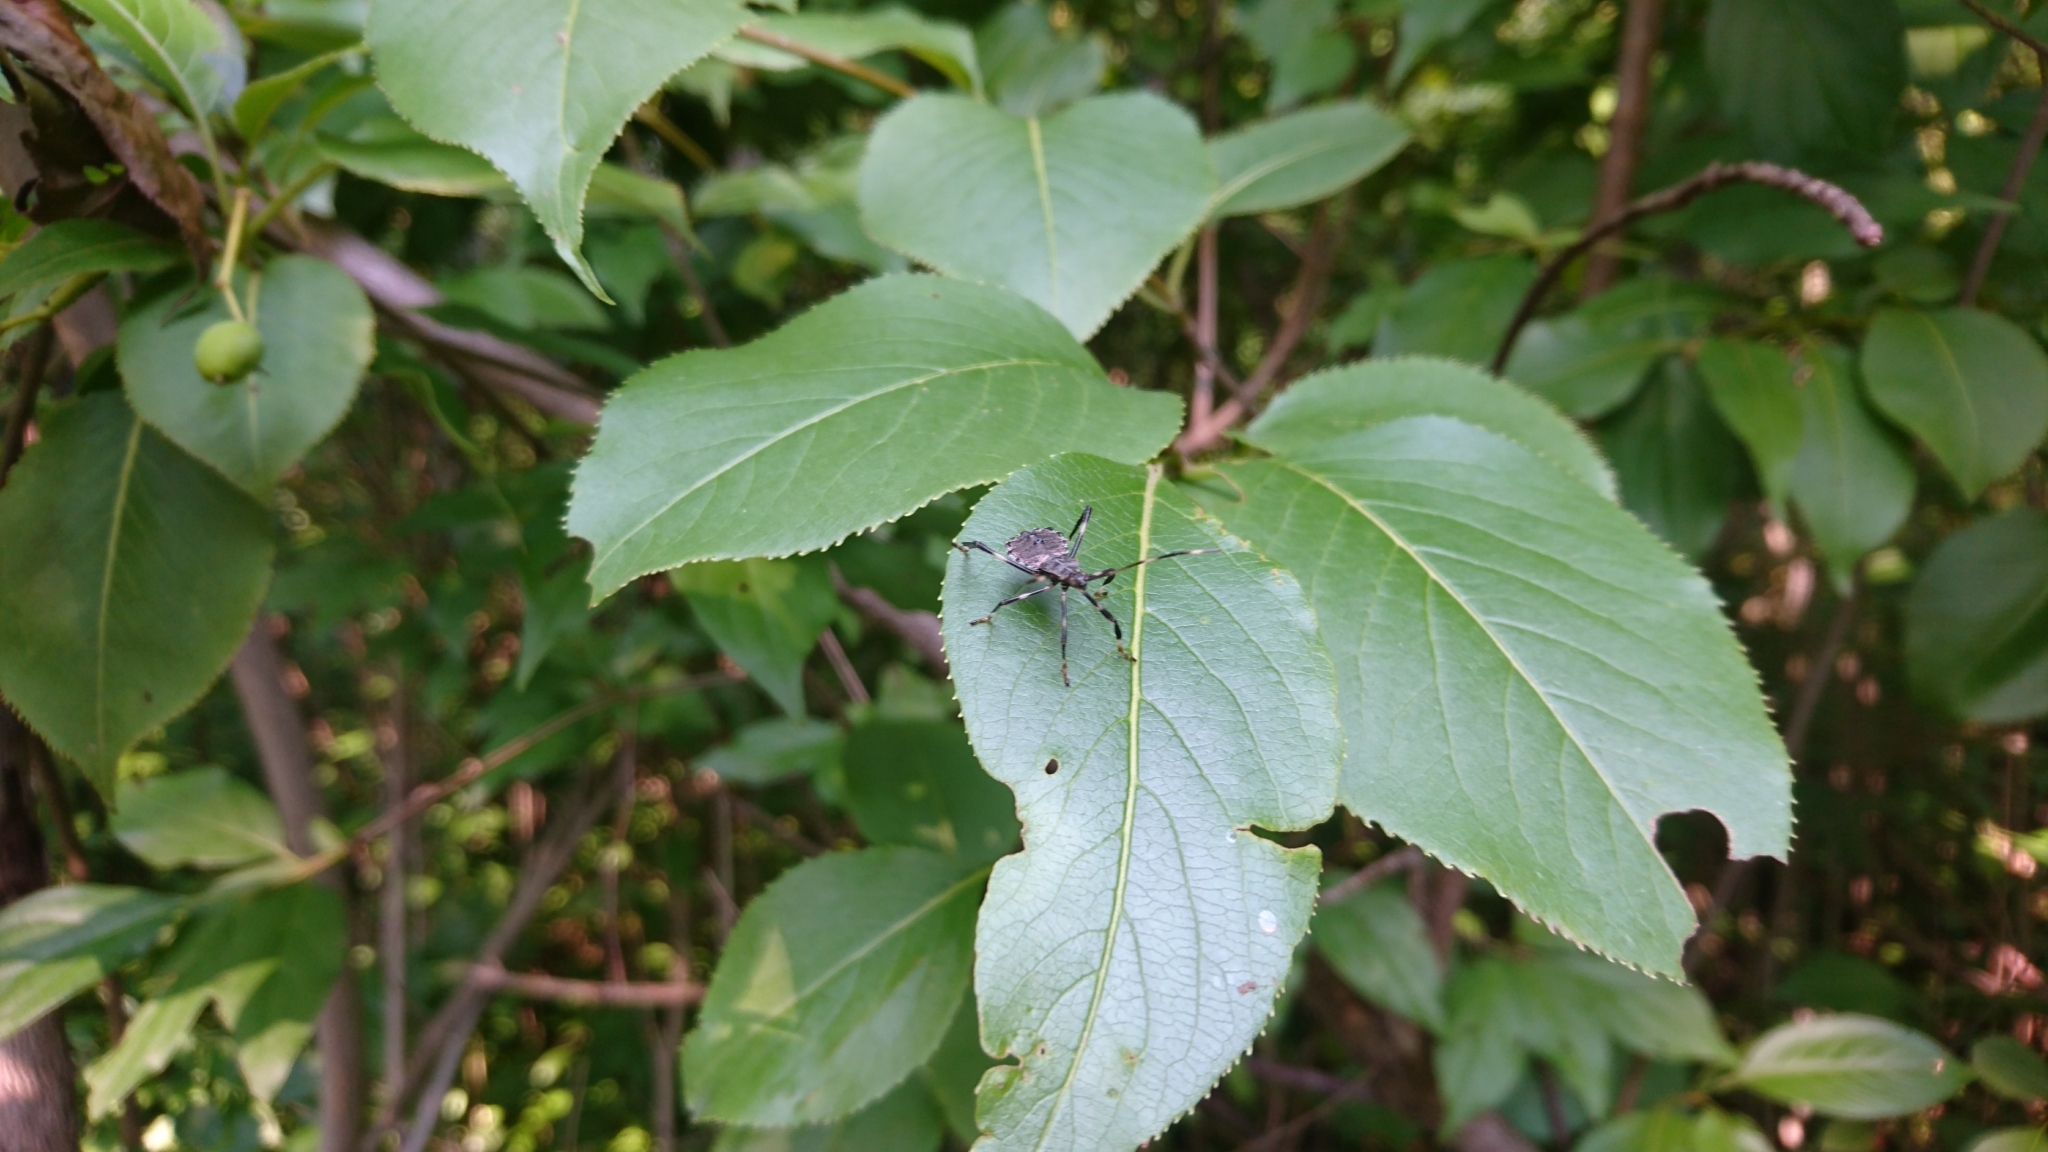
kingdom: Animalia
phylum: Arthropoda
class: Insecta
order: Hemiptera
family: Coreidae
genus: Acanthocephala
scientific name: Acanthocephala terminalis
